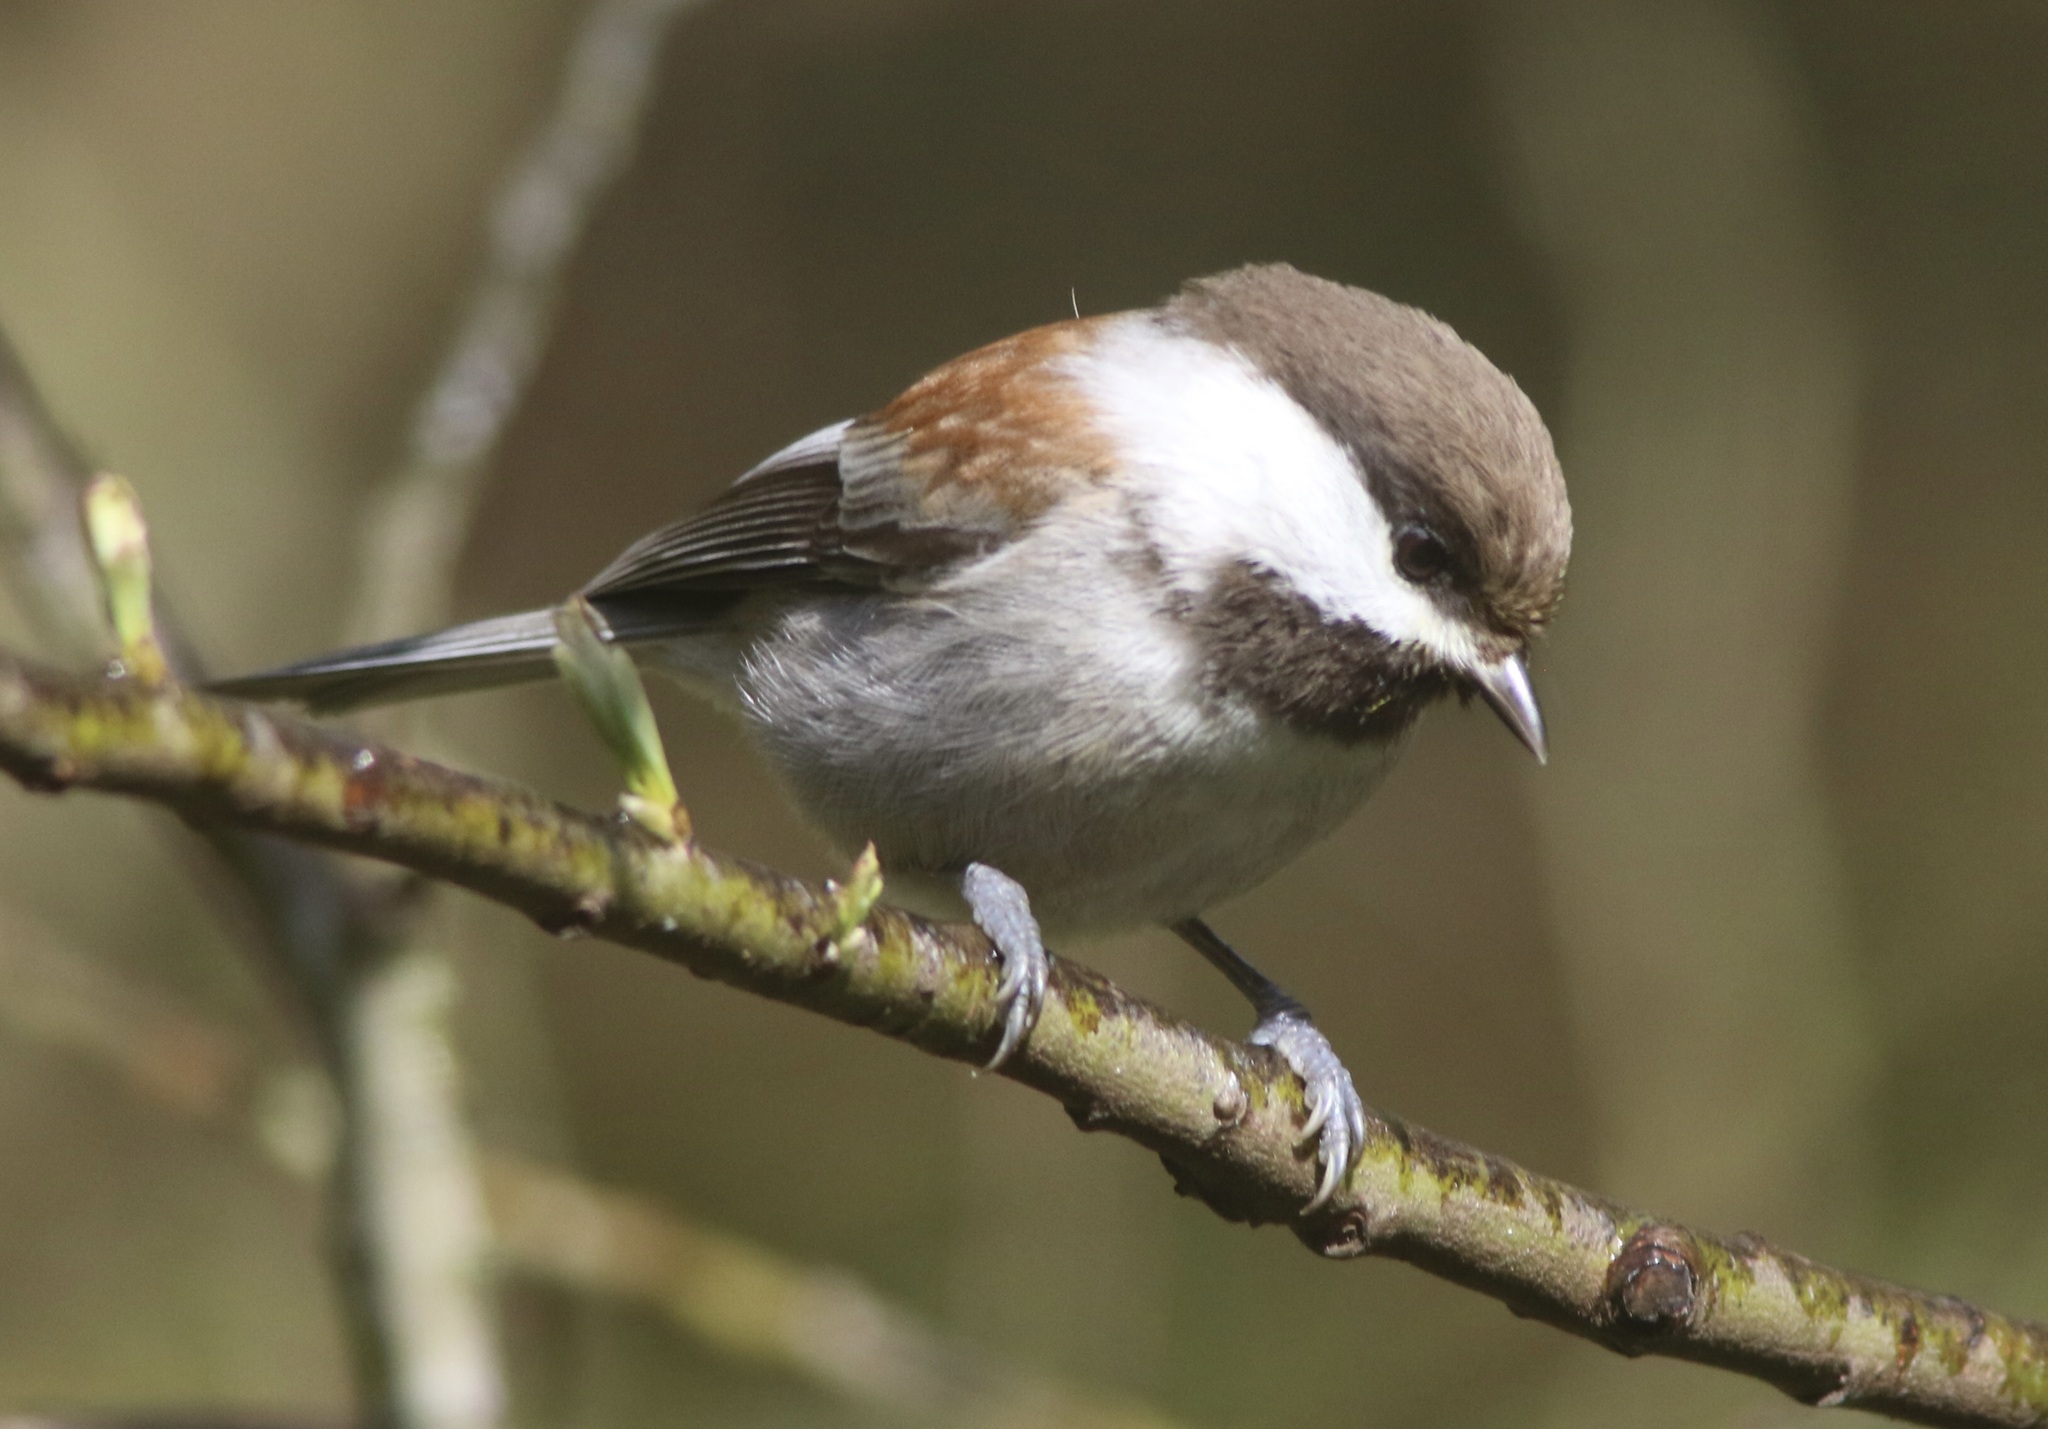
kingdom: Animalia
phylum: Chordata
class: Aves
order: Passeriformes
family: Paridae
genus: Poecile
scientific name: Poecile rufescens
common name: Chestnut-backed chickadee
